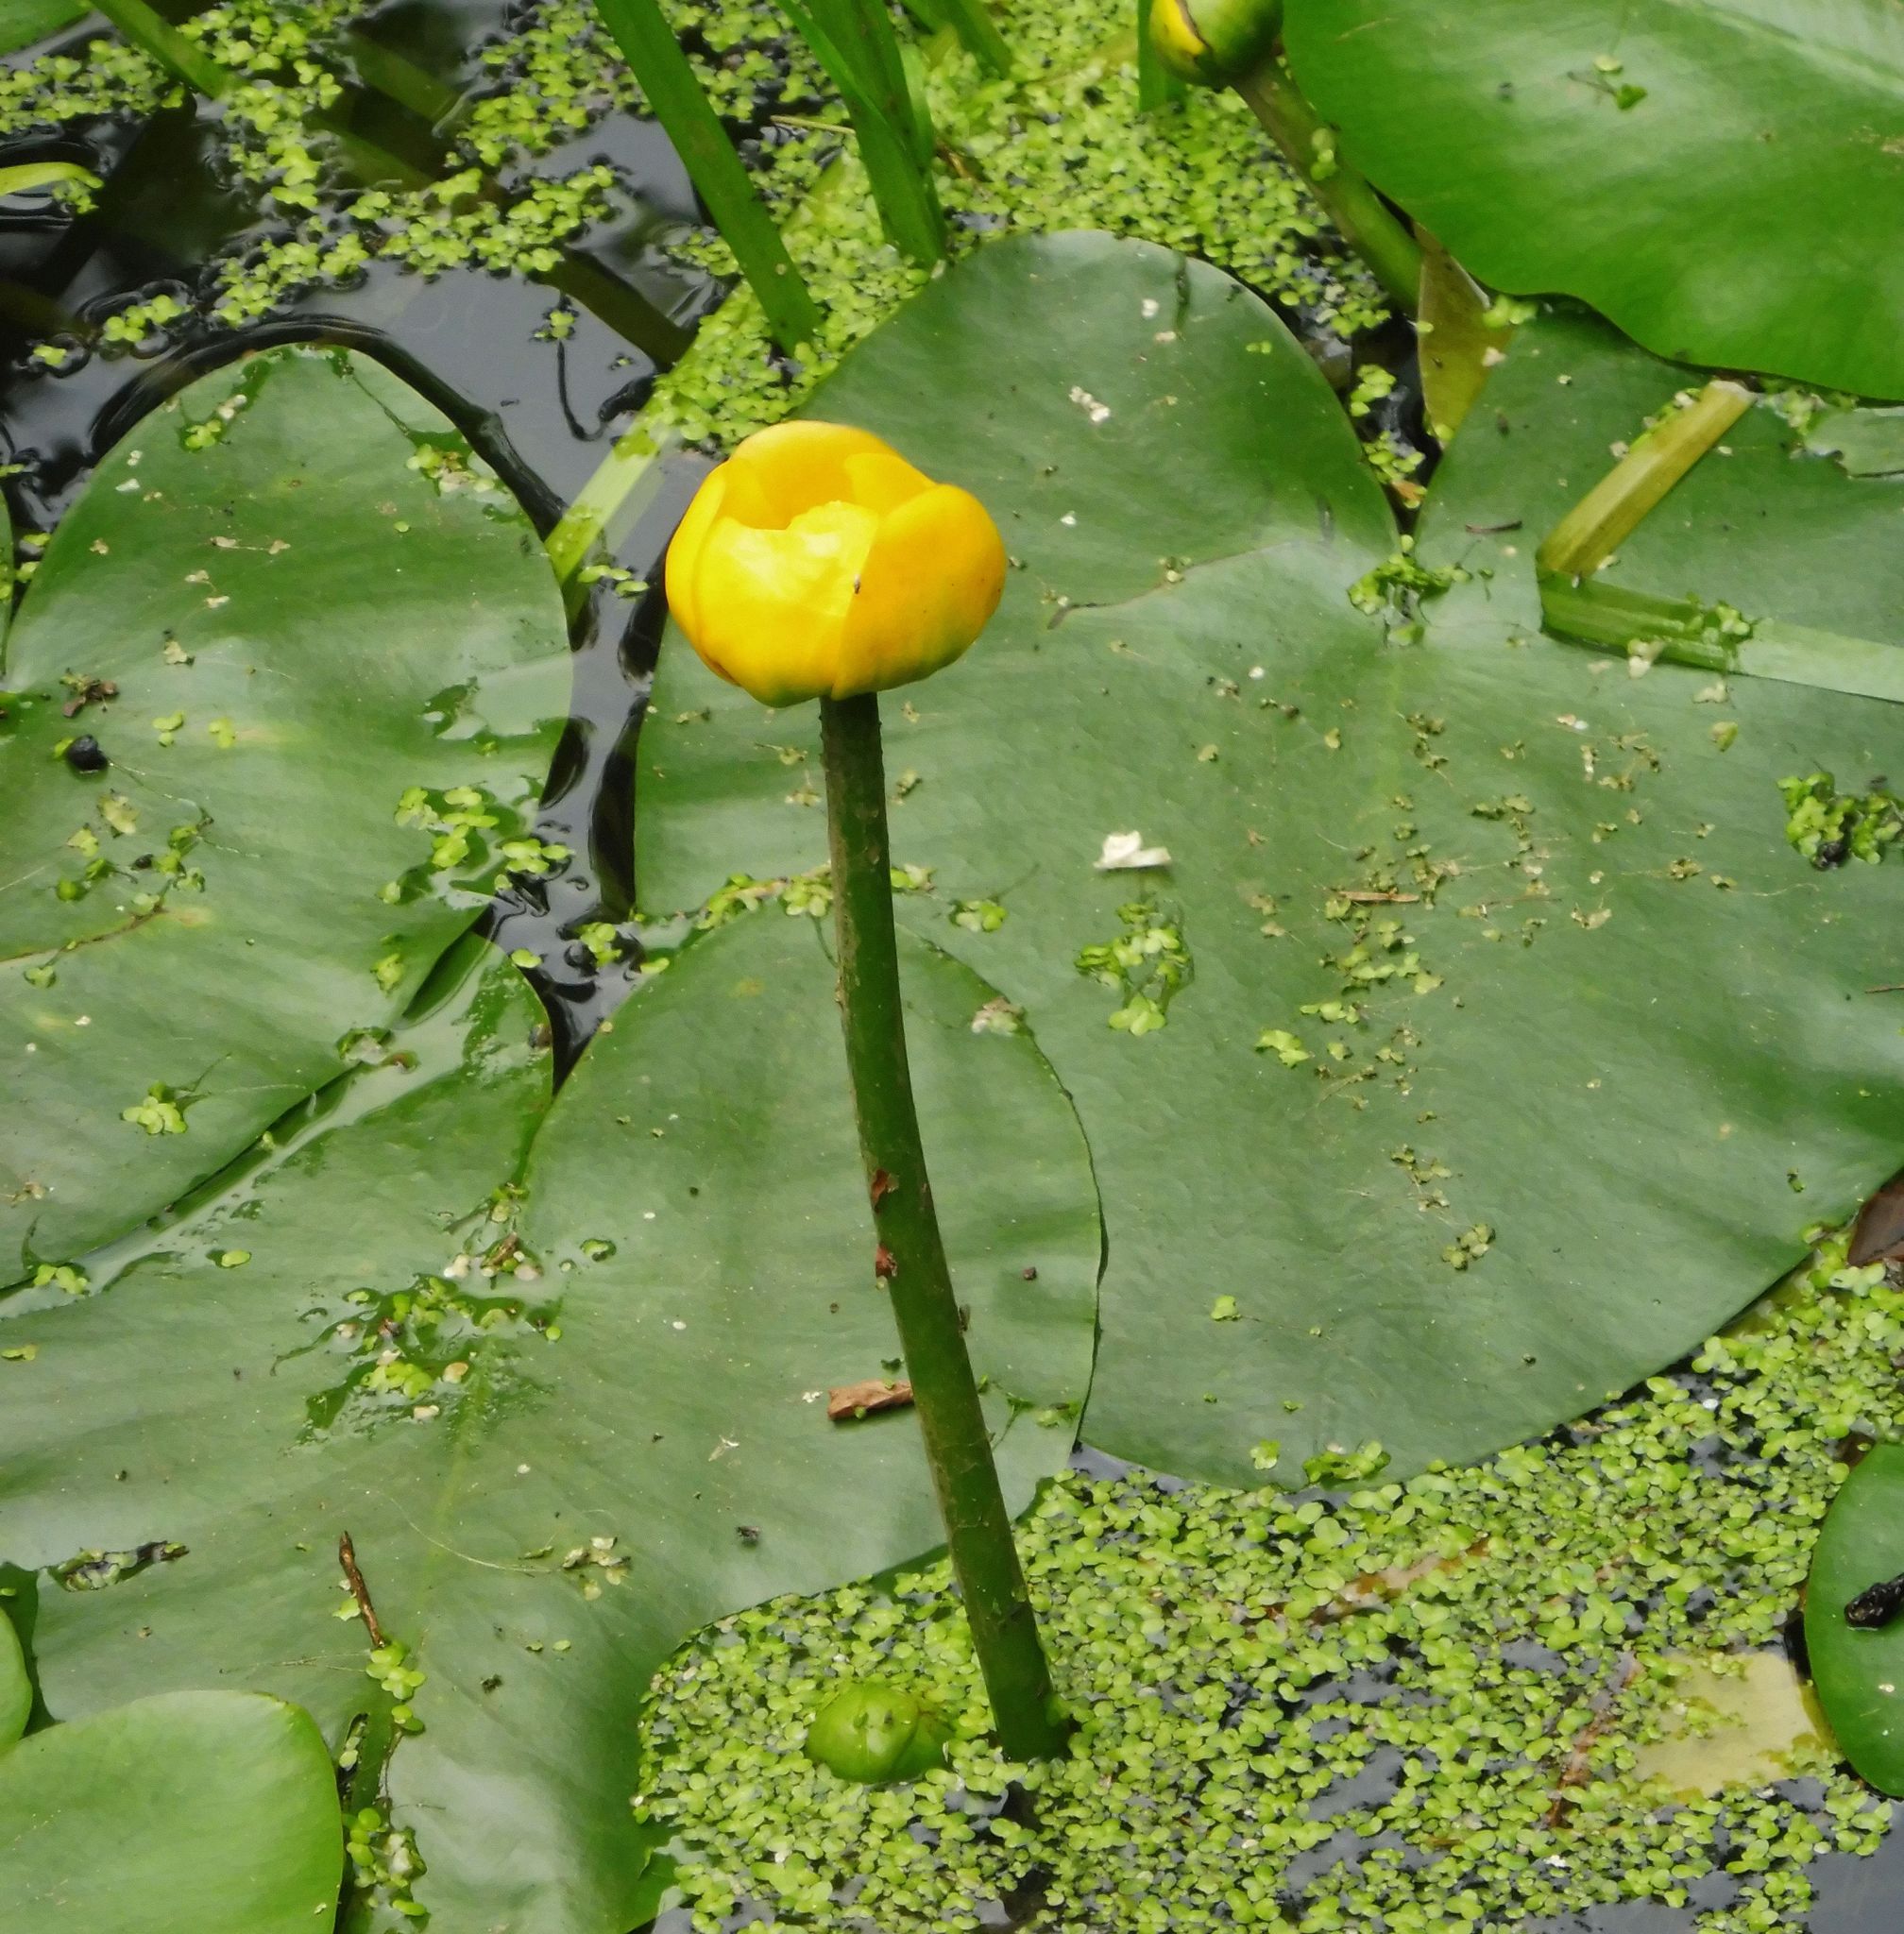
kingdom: Plantae
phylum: Tracheophyta
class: Magnoliopsida
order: Nymphaeales
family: Nymphaeaceae
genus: Nuphar
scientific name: Nuphar lutea
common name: Yellow water-lily
